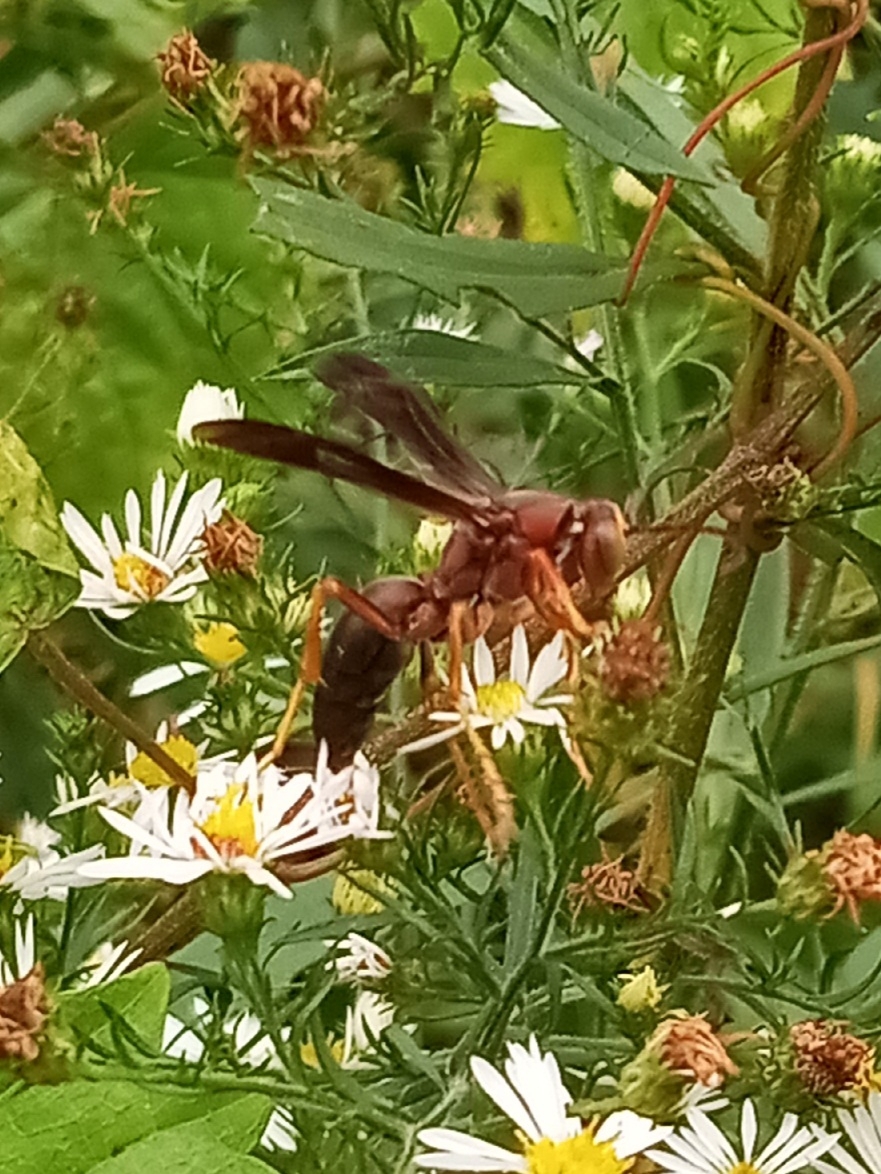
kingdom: Animalia
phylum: Arthropoda
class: Insecta
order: Hymenoptera
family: Eumenidae
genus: Polistes
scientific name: Polistes metricus
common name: Metric paper wasp
